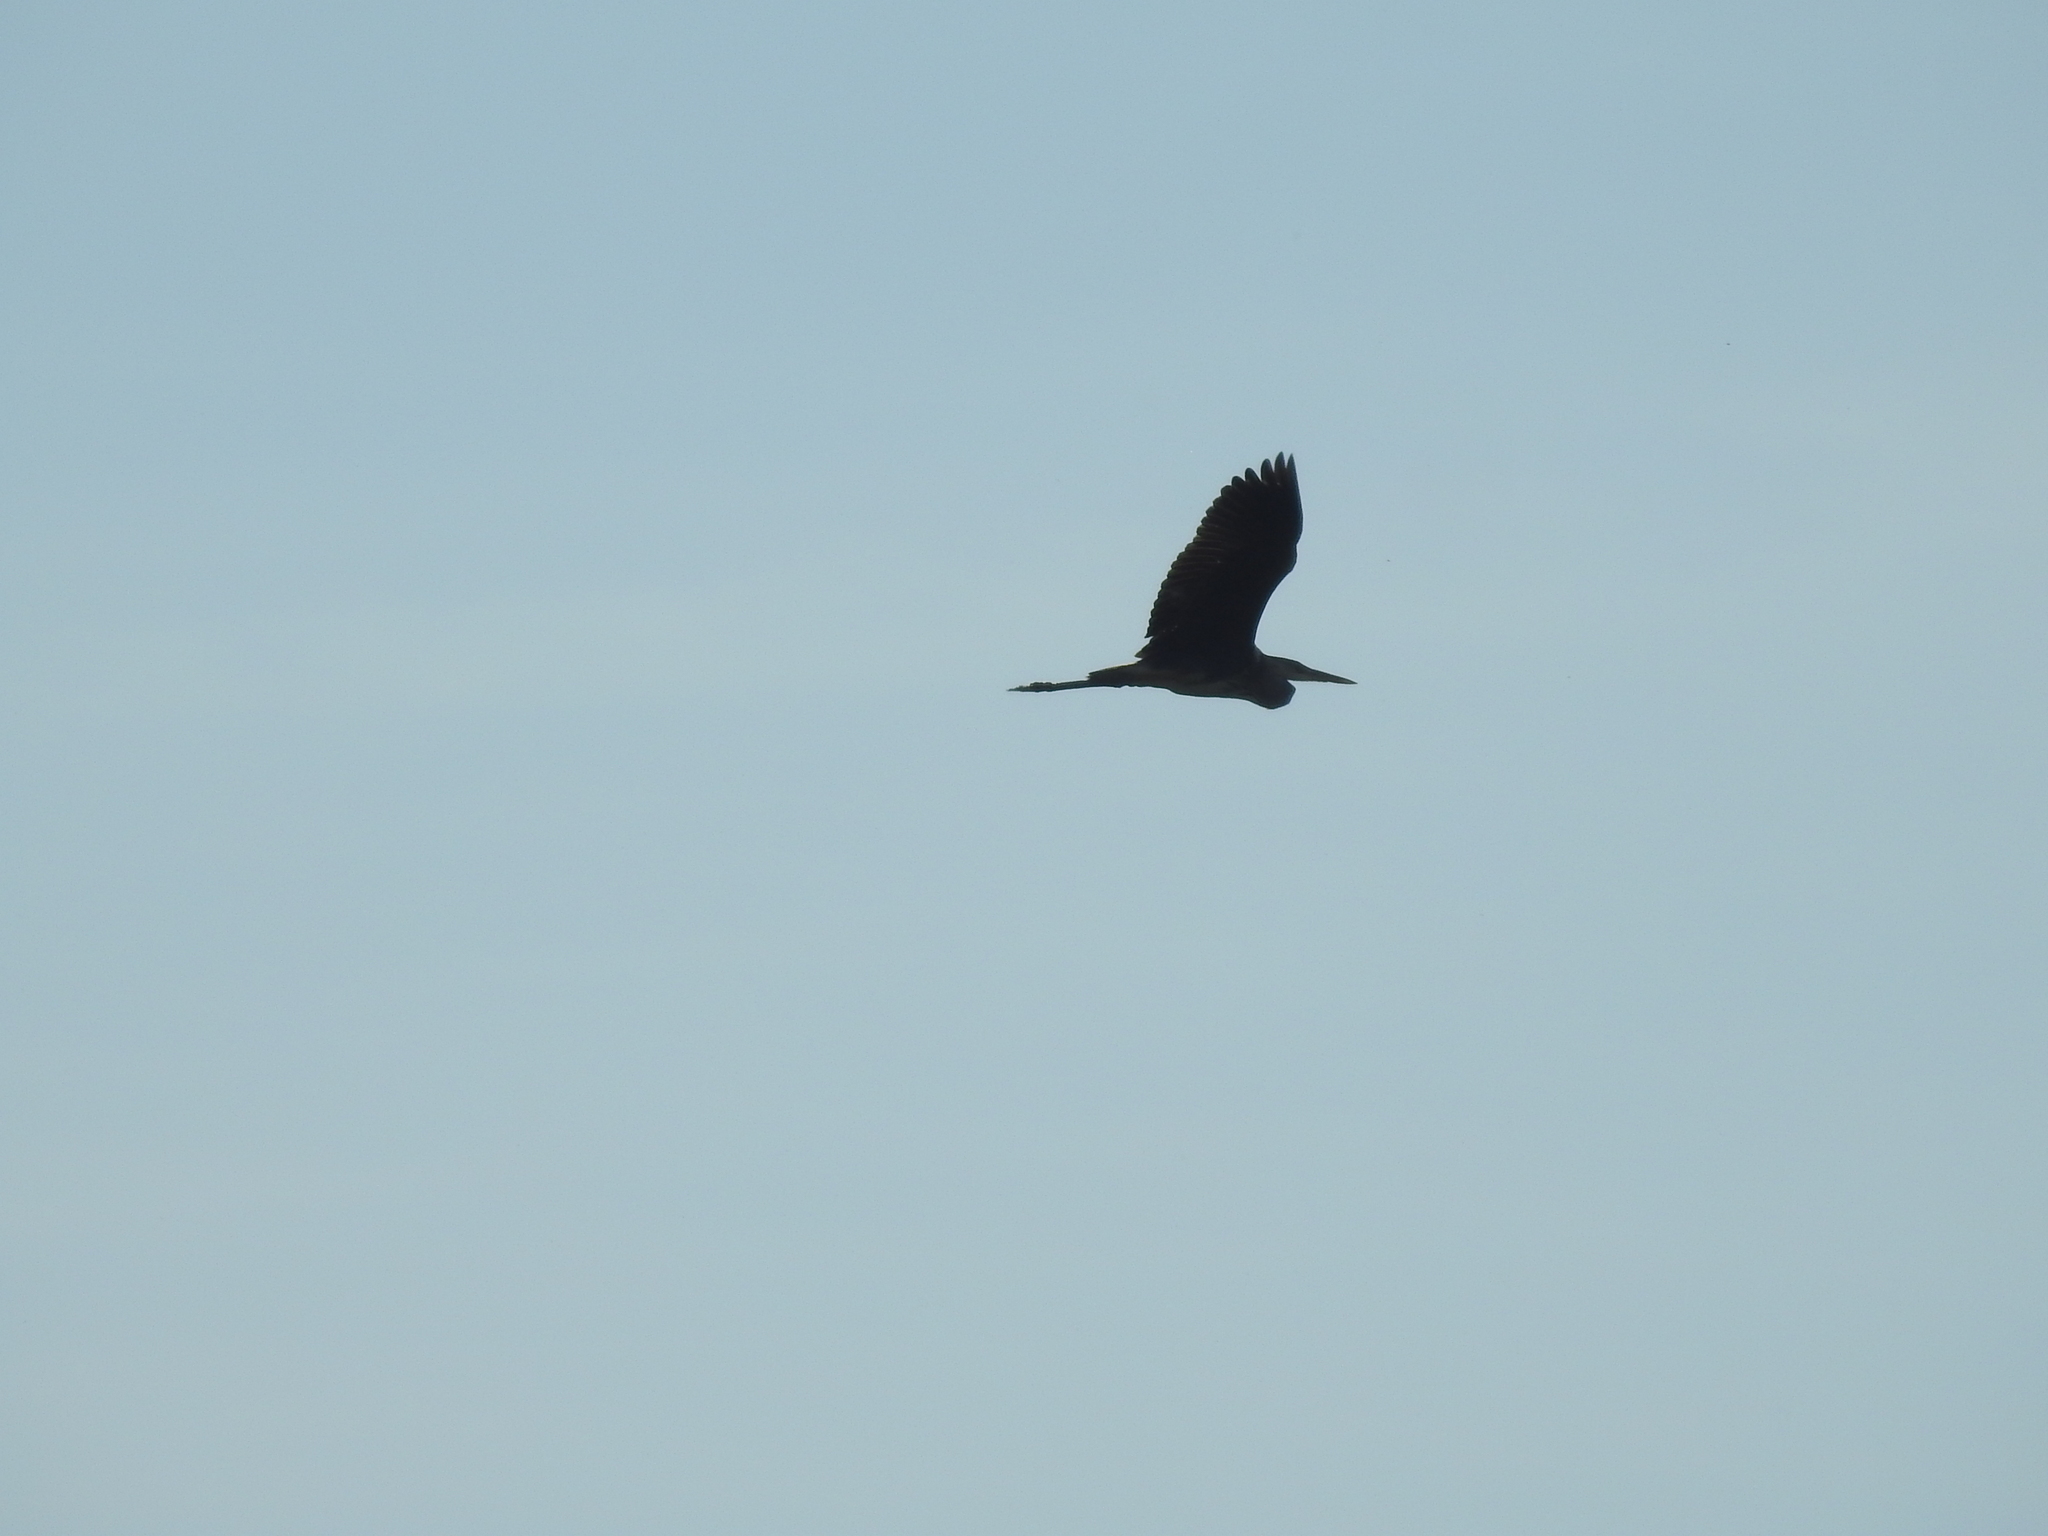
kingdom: Animalia
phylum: Chordata
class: Aves
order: Pelecaniformes
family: Ardeidae
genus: Ardea
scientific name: Ardea cinerea
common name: Grey heron
